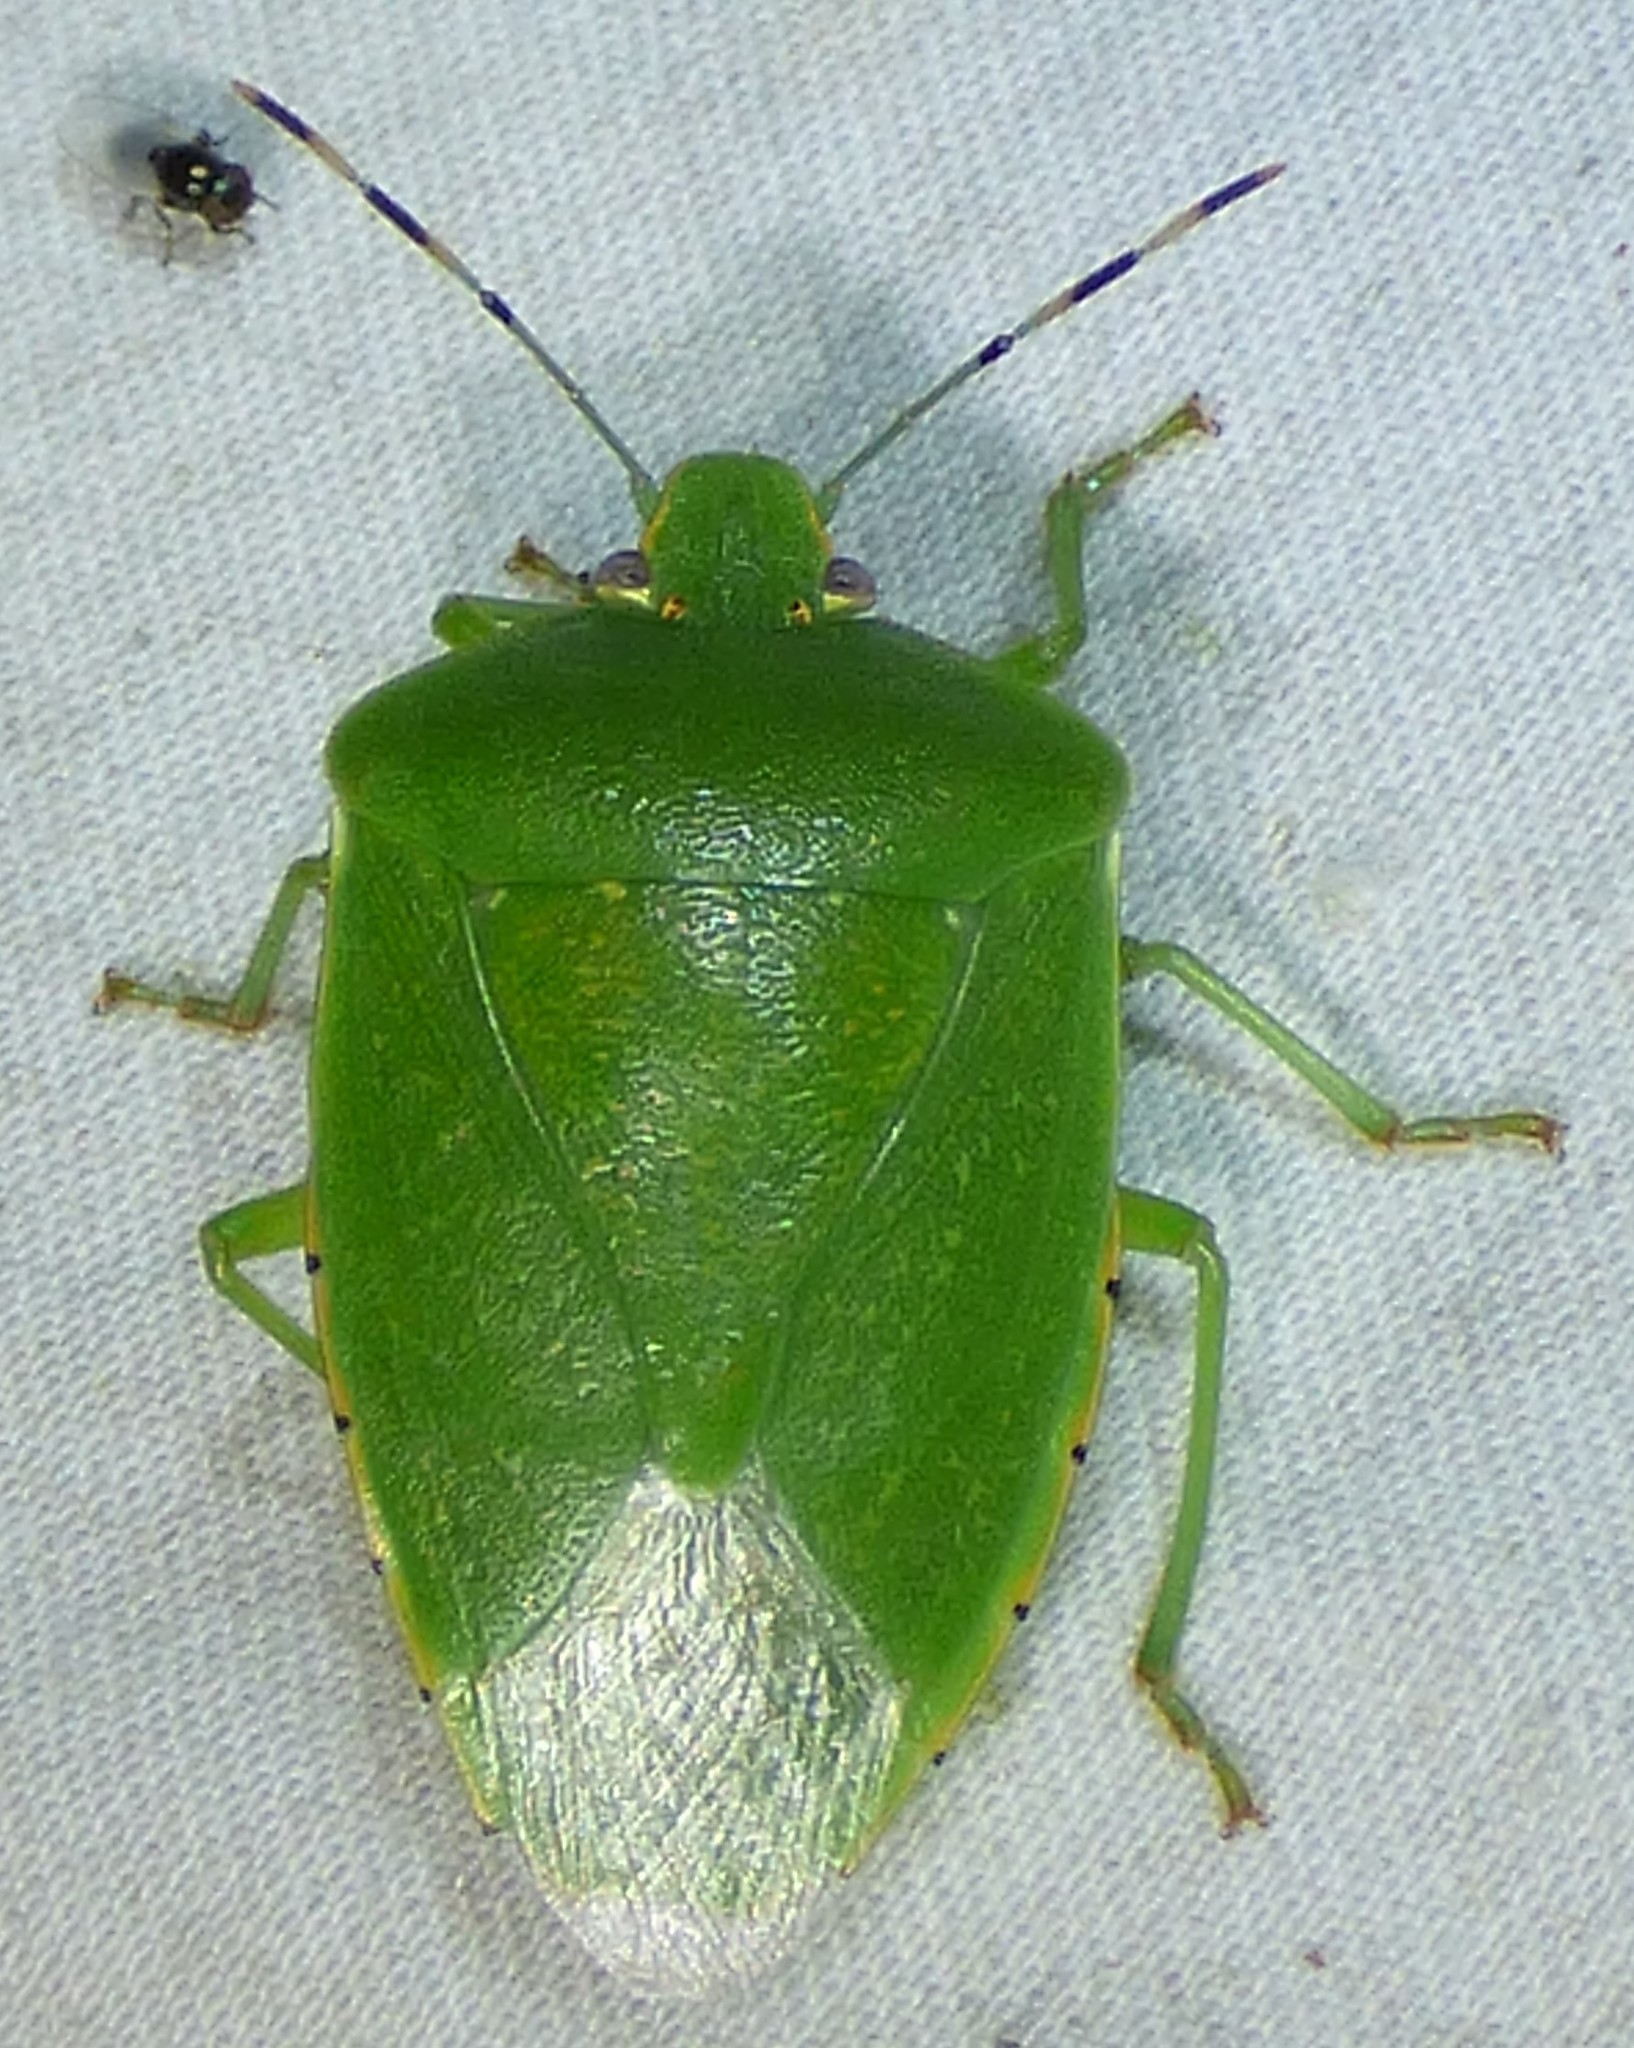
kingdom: Animalia
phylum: Arthropoda
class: Insecta
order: Hemiptera
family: Pentatomidae
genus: Chinavia
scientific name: Chinavia hilaris
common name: Green stink bug
